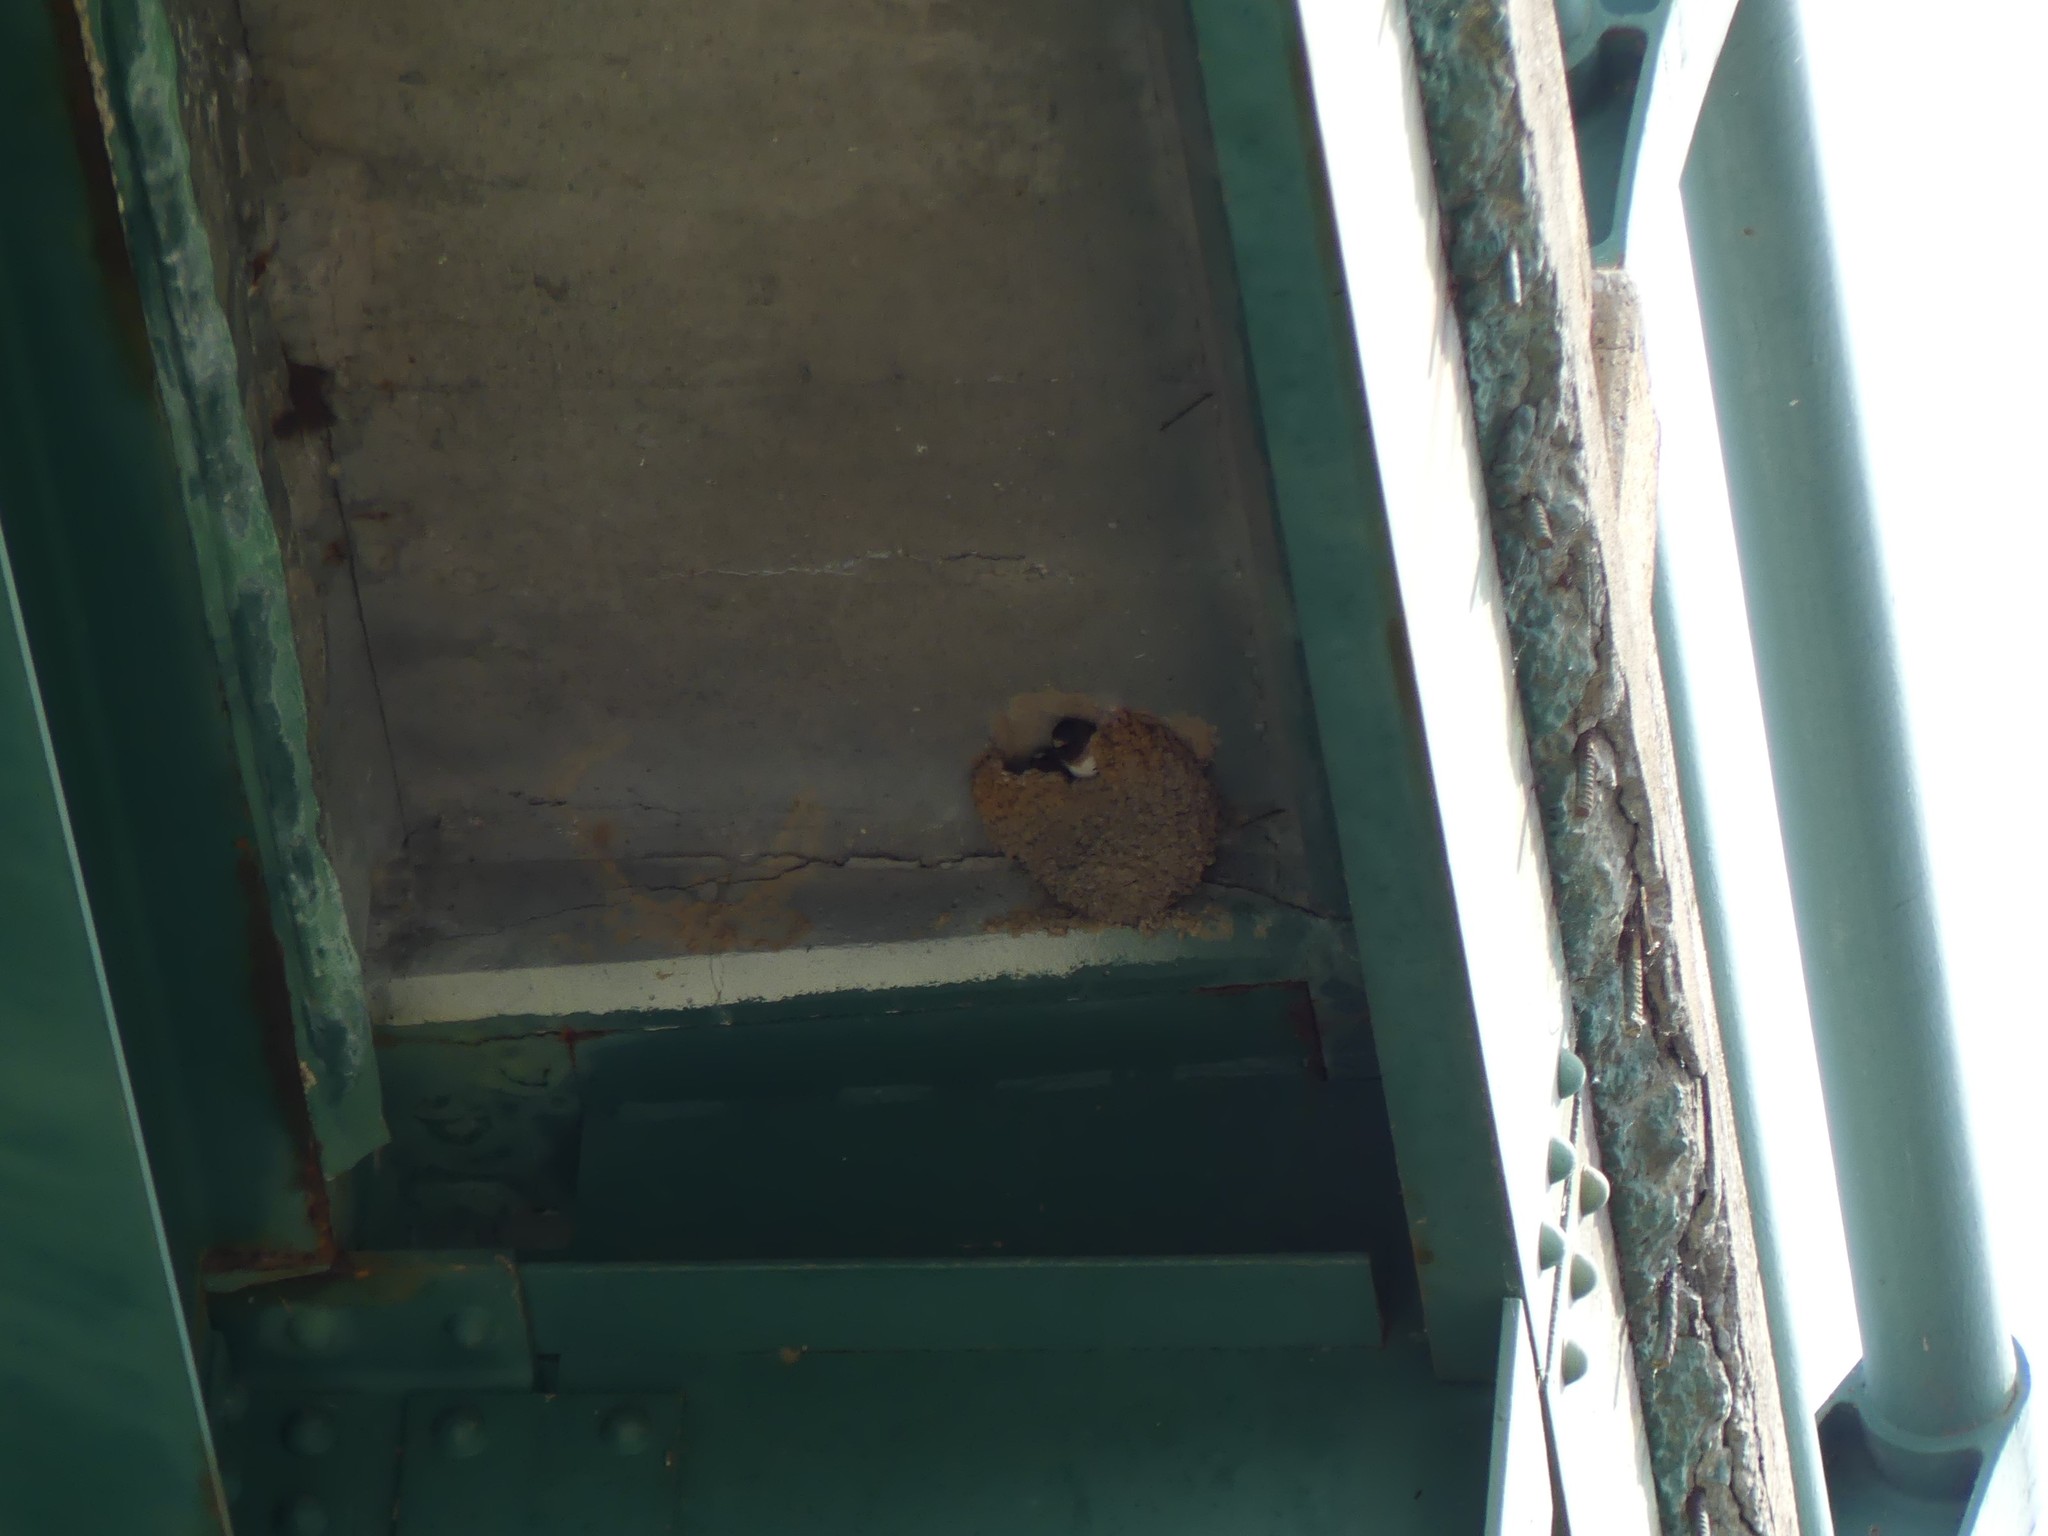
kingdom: Animalia
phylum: Chordata
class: Aves
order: Passeriformes
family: Hirundinidae
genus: Petrochelidon
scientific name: Petrochelidon pyrrhonota
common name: American cliff swallow
